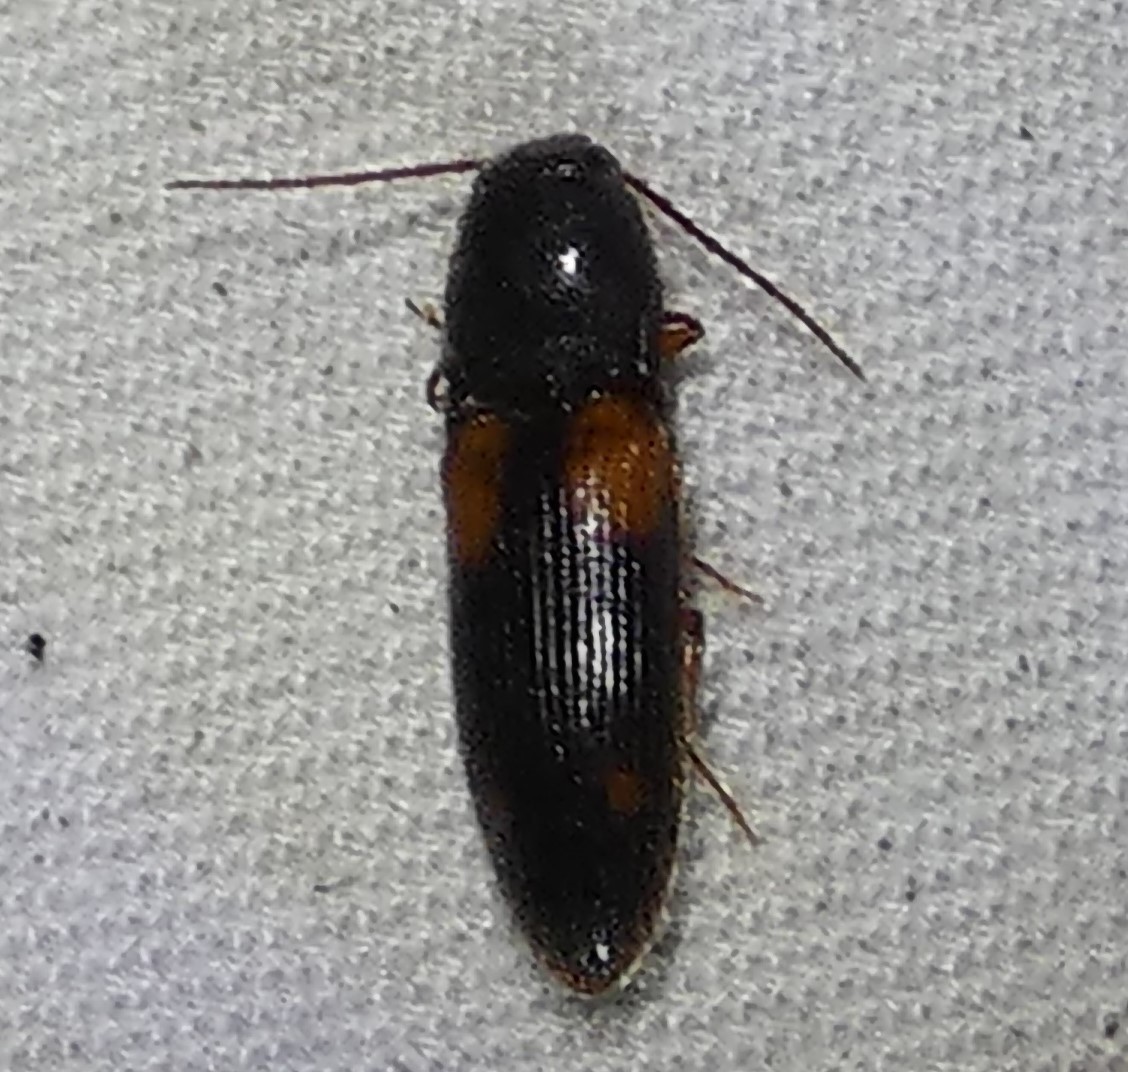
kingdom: Animalia
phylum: Arthropoda
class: Insecta
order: Coleoptera
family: Elateridae
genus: Anchastus
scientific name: Anchastus binus
